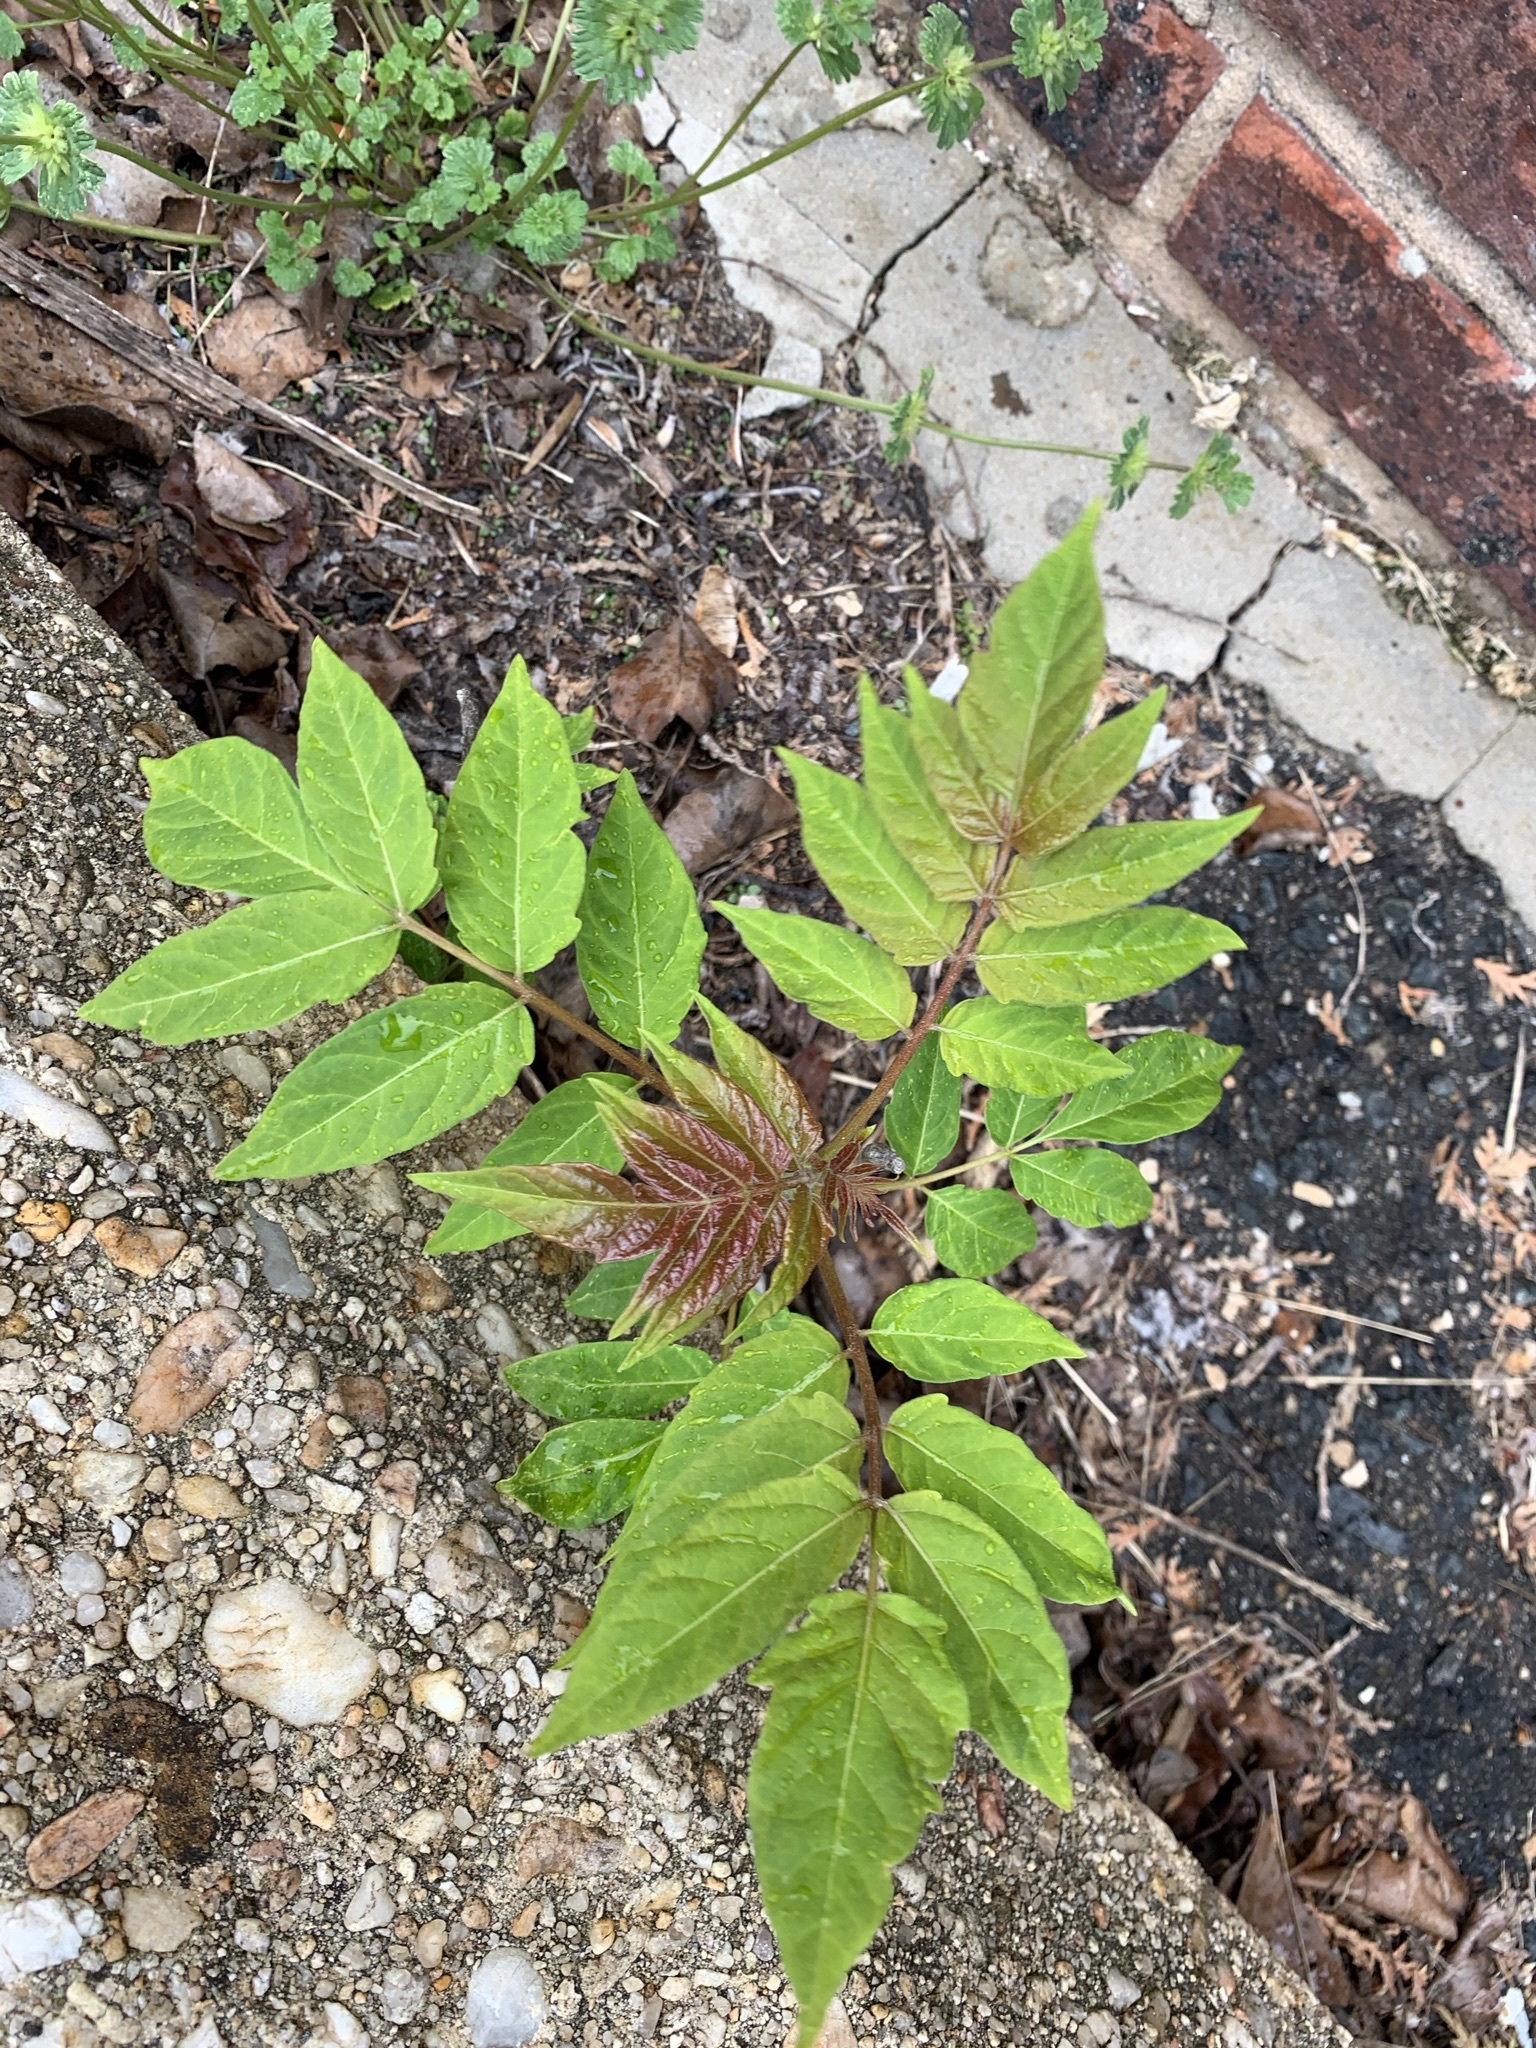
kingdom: Plantae
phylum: Tracheophyta
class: Magnoliopsida
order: Sapindales
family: Simaroubaceae
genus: Ailanthus
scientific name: Ailanthus altissima
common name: Tree-of-heaven
